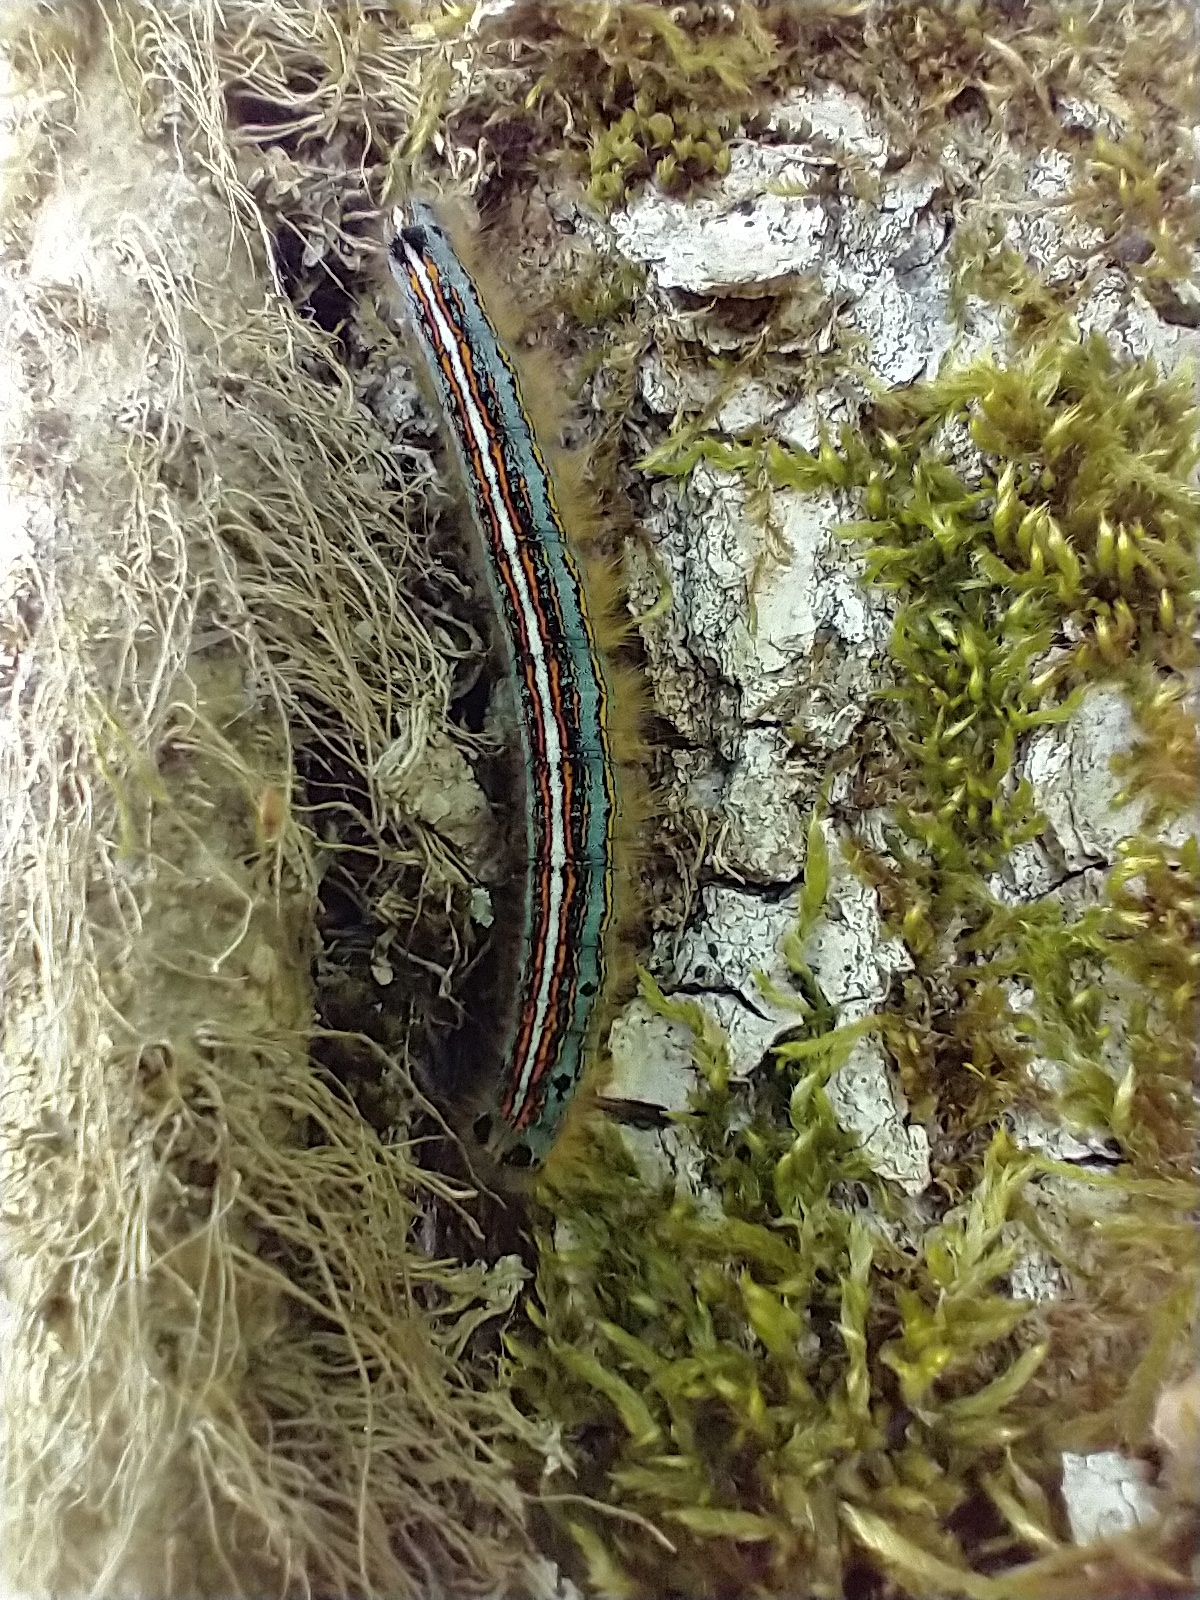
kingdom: Animalia
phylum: Arthropoda
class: Insecta
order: Lepidoptera
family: Lasiocampidae
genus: Malacosoma
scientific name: Malacosoma neustria
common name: The lackey
